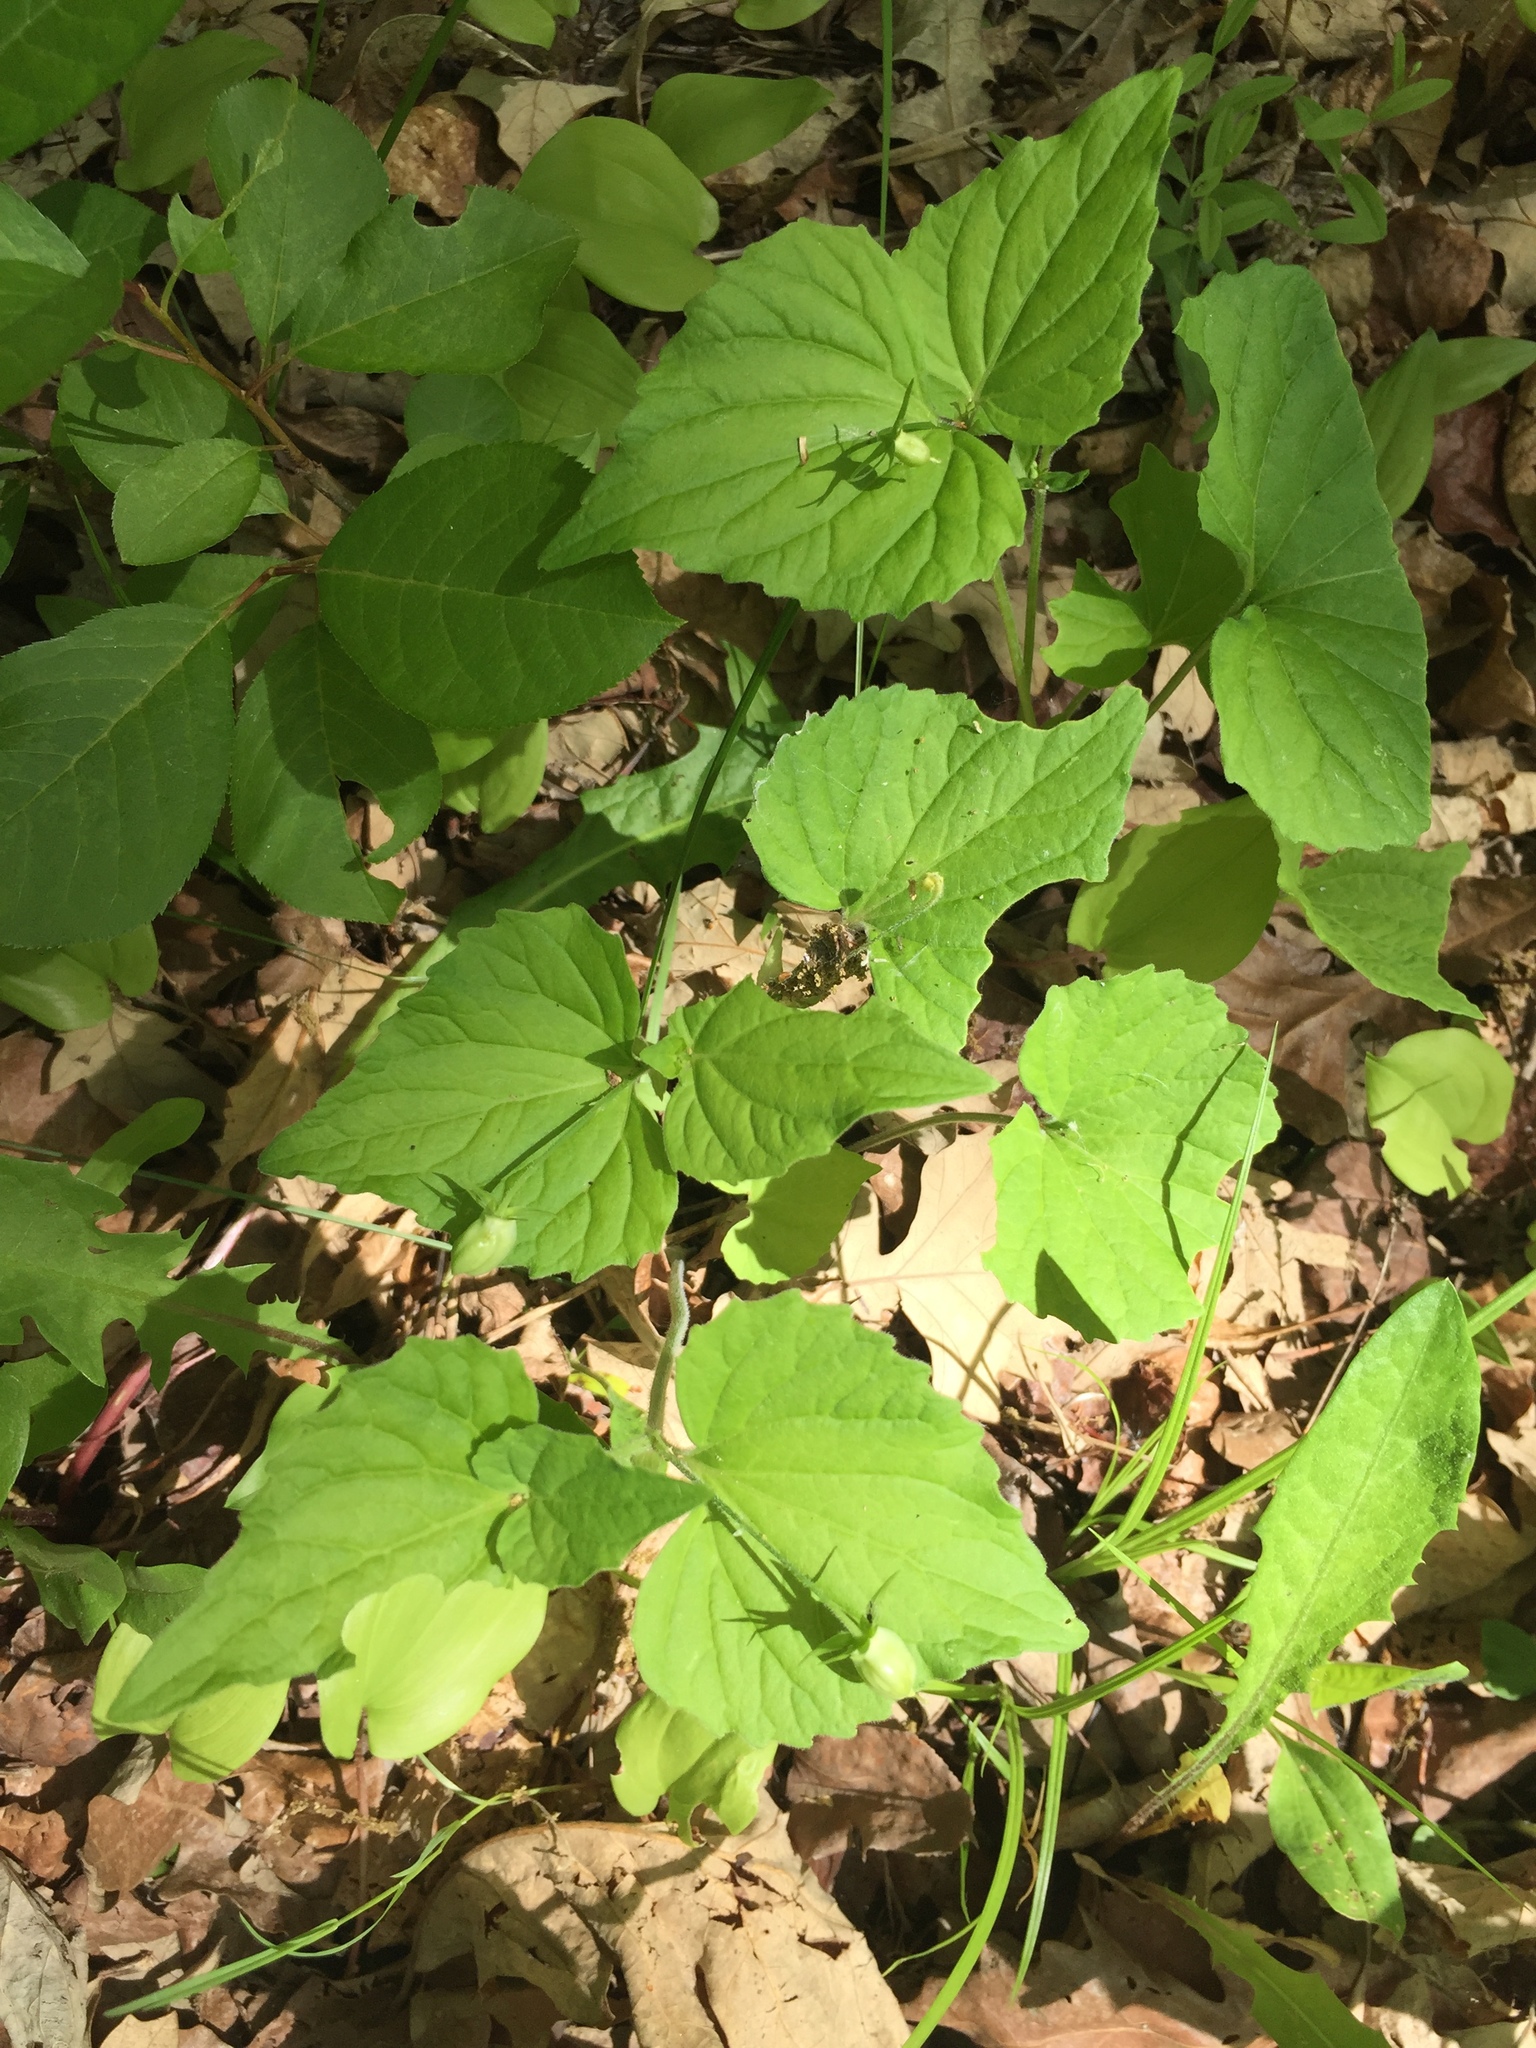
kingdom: Plantae
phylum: Tracheophyta
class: Magnoliopsida
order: Malpighiales
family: Violaceae
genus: Viola
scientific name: Viola eriocarpa
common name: Smooth yellow violet
